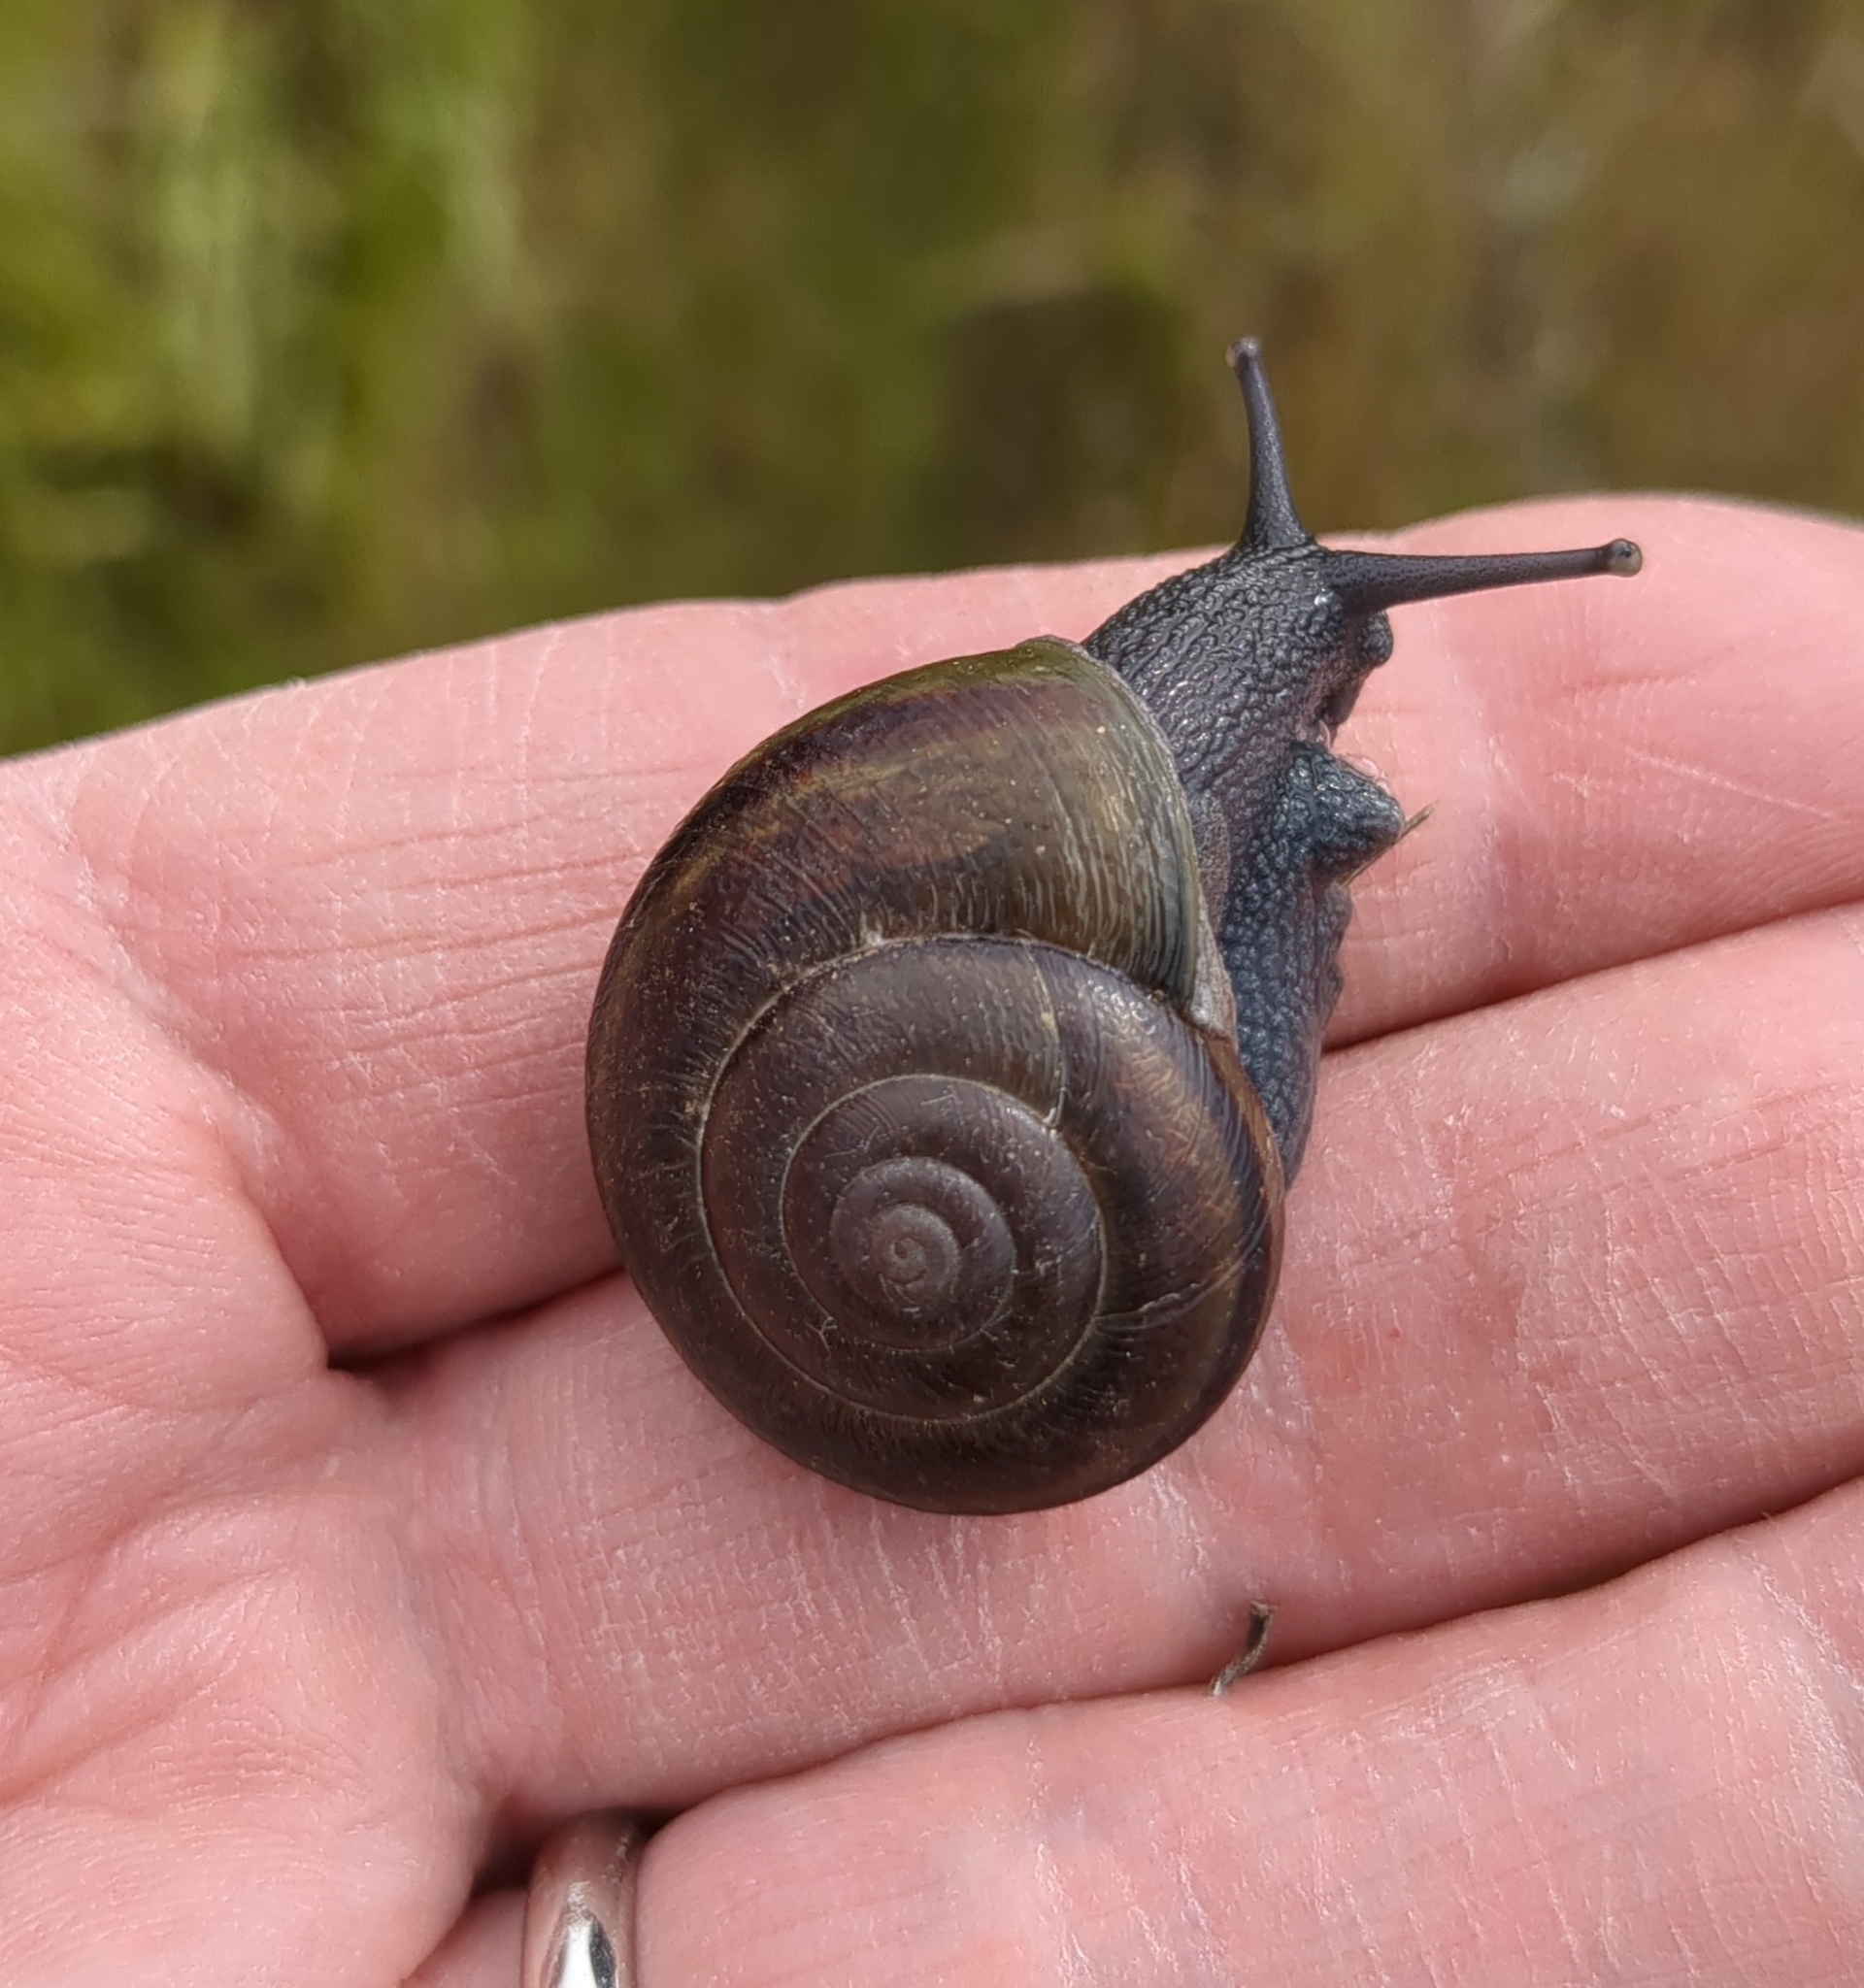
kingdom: Animalia
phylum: Mollusca
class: Gastropoda
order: Stylommatophora
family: Xanthonychidae
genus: Helminthoglypta
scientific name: Helminthoglypta tudiculata
